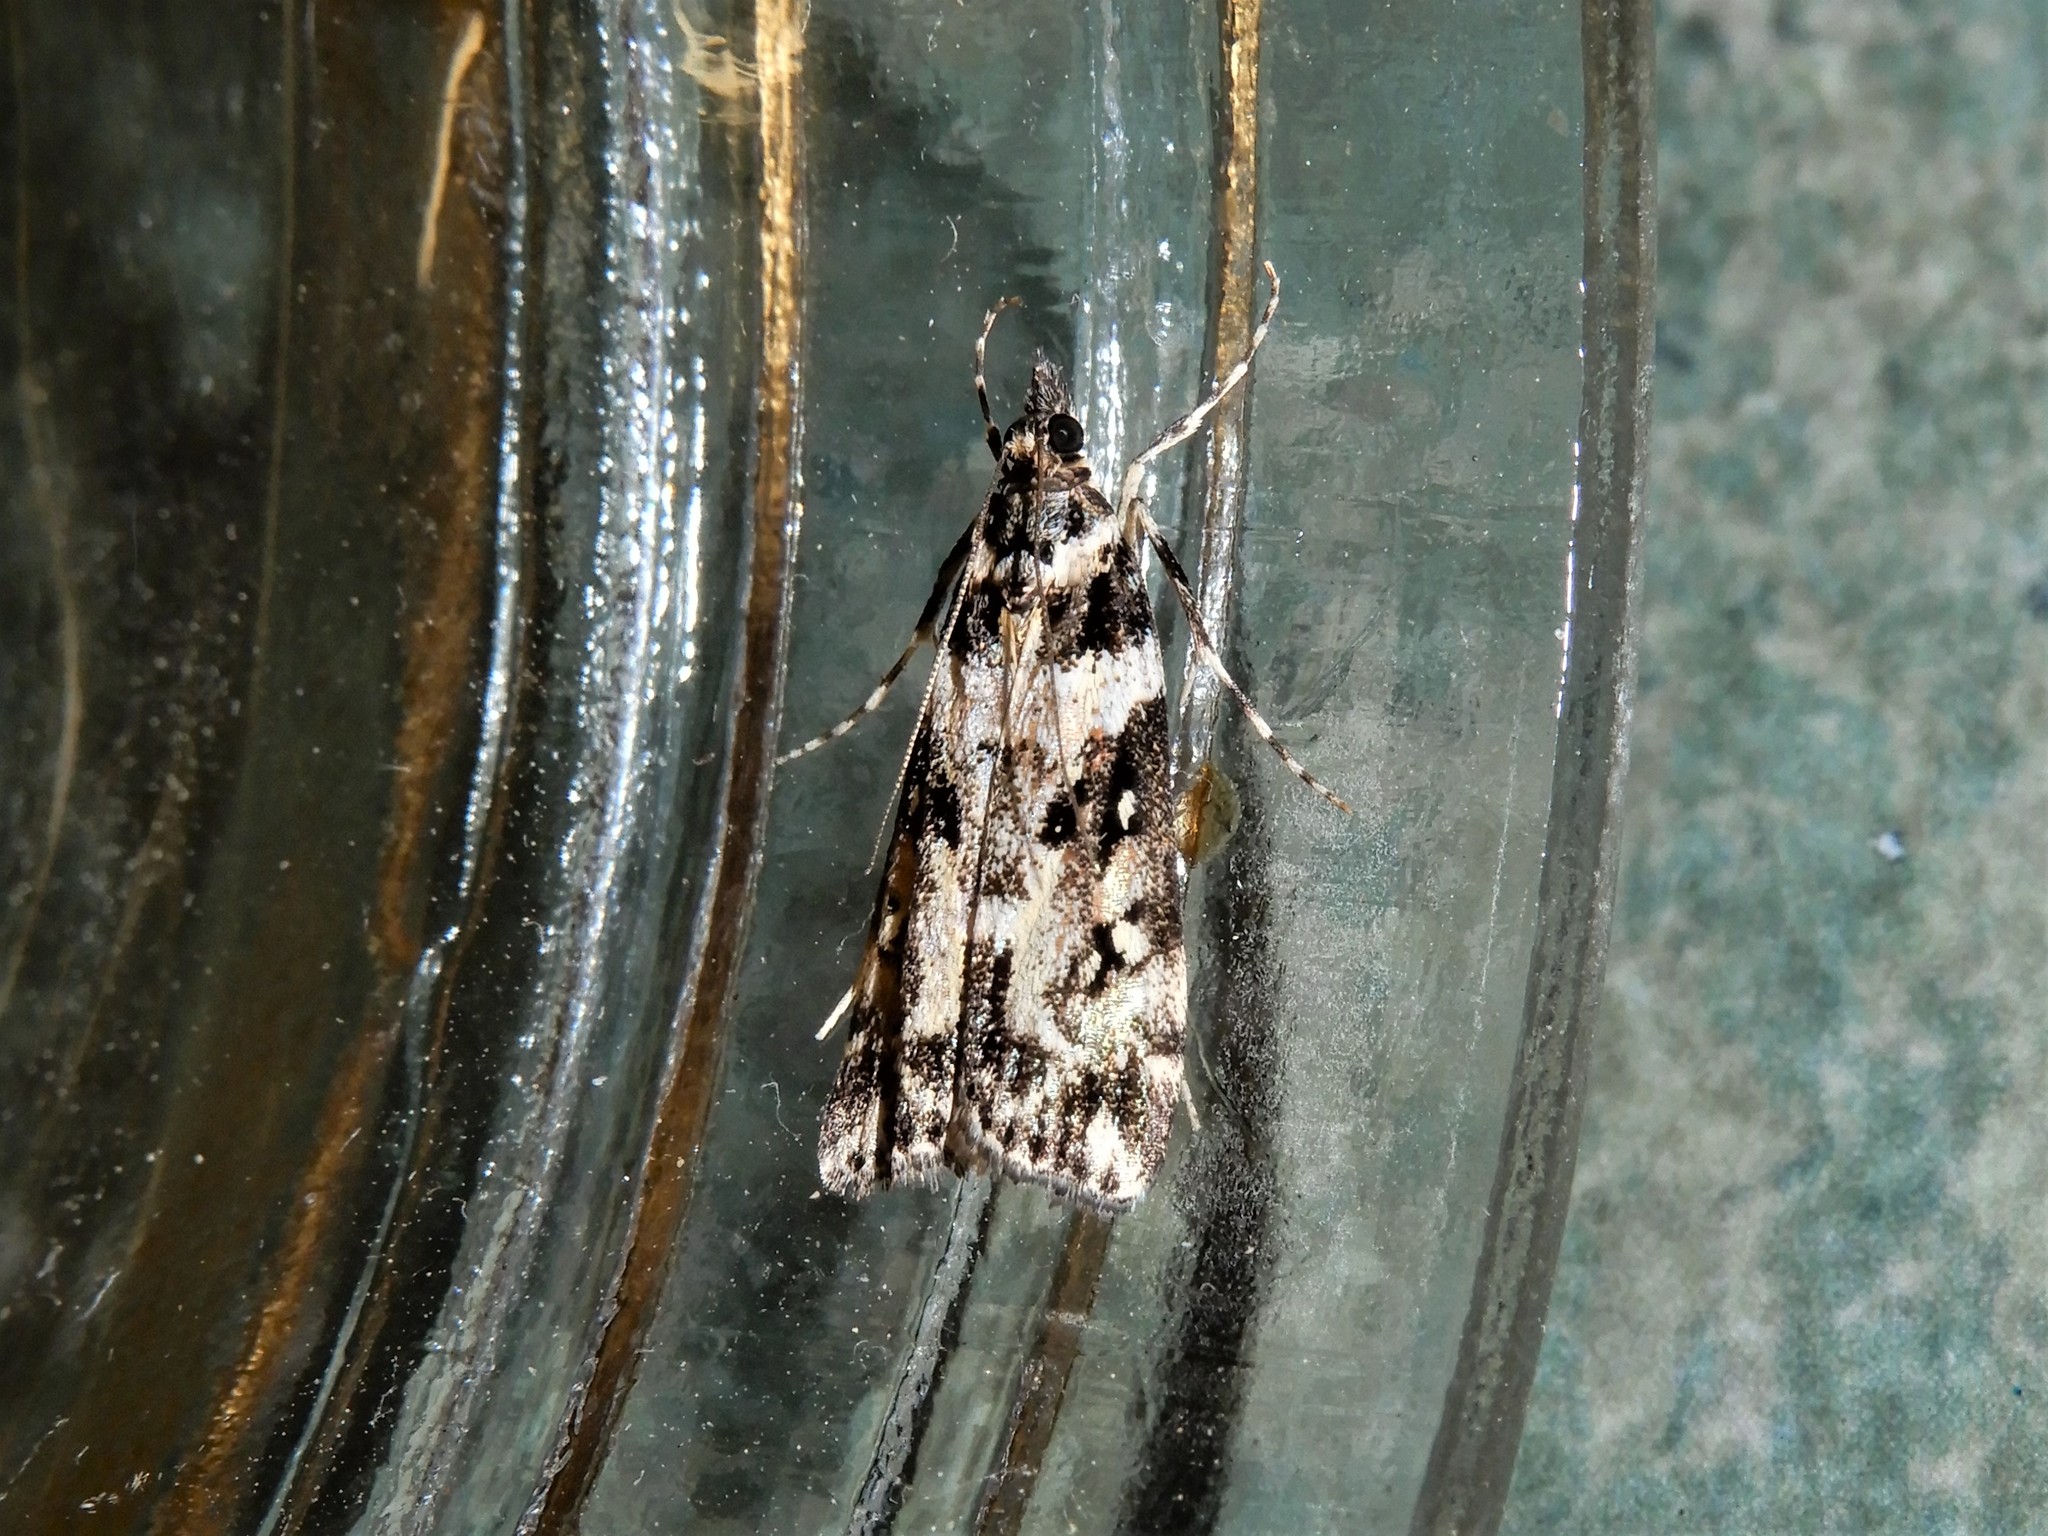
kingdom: Animalia
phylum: Arthropoda
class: Insecta
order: Lepidoptera
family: Crambidae
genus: Eudonia
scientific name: Eudonia diphtheralis
